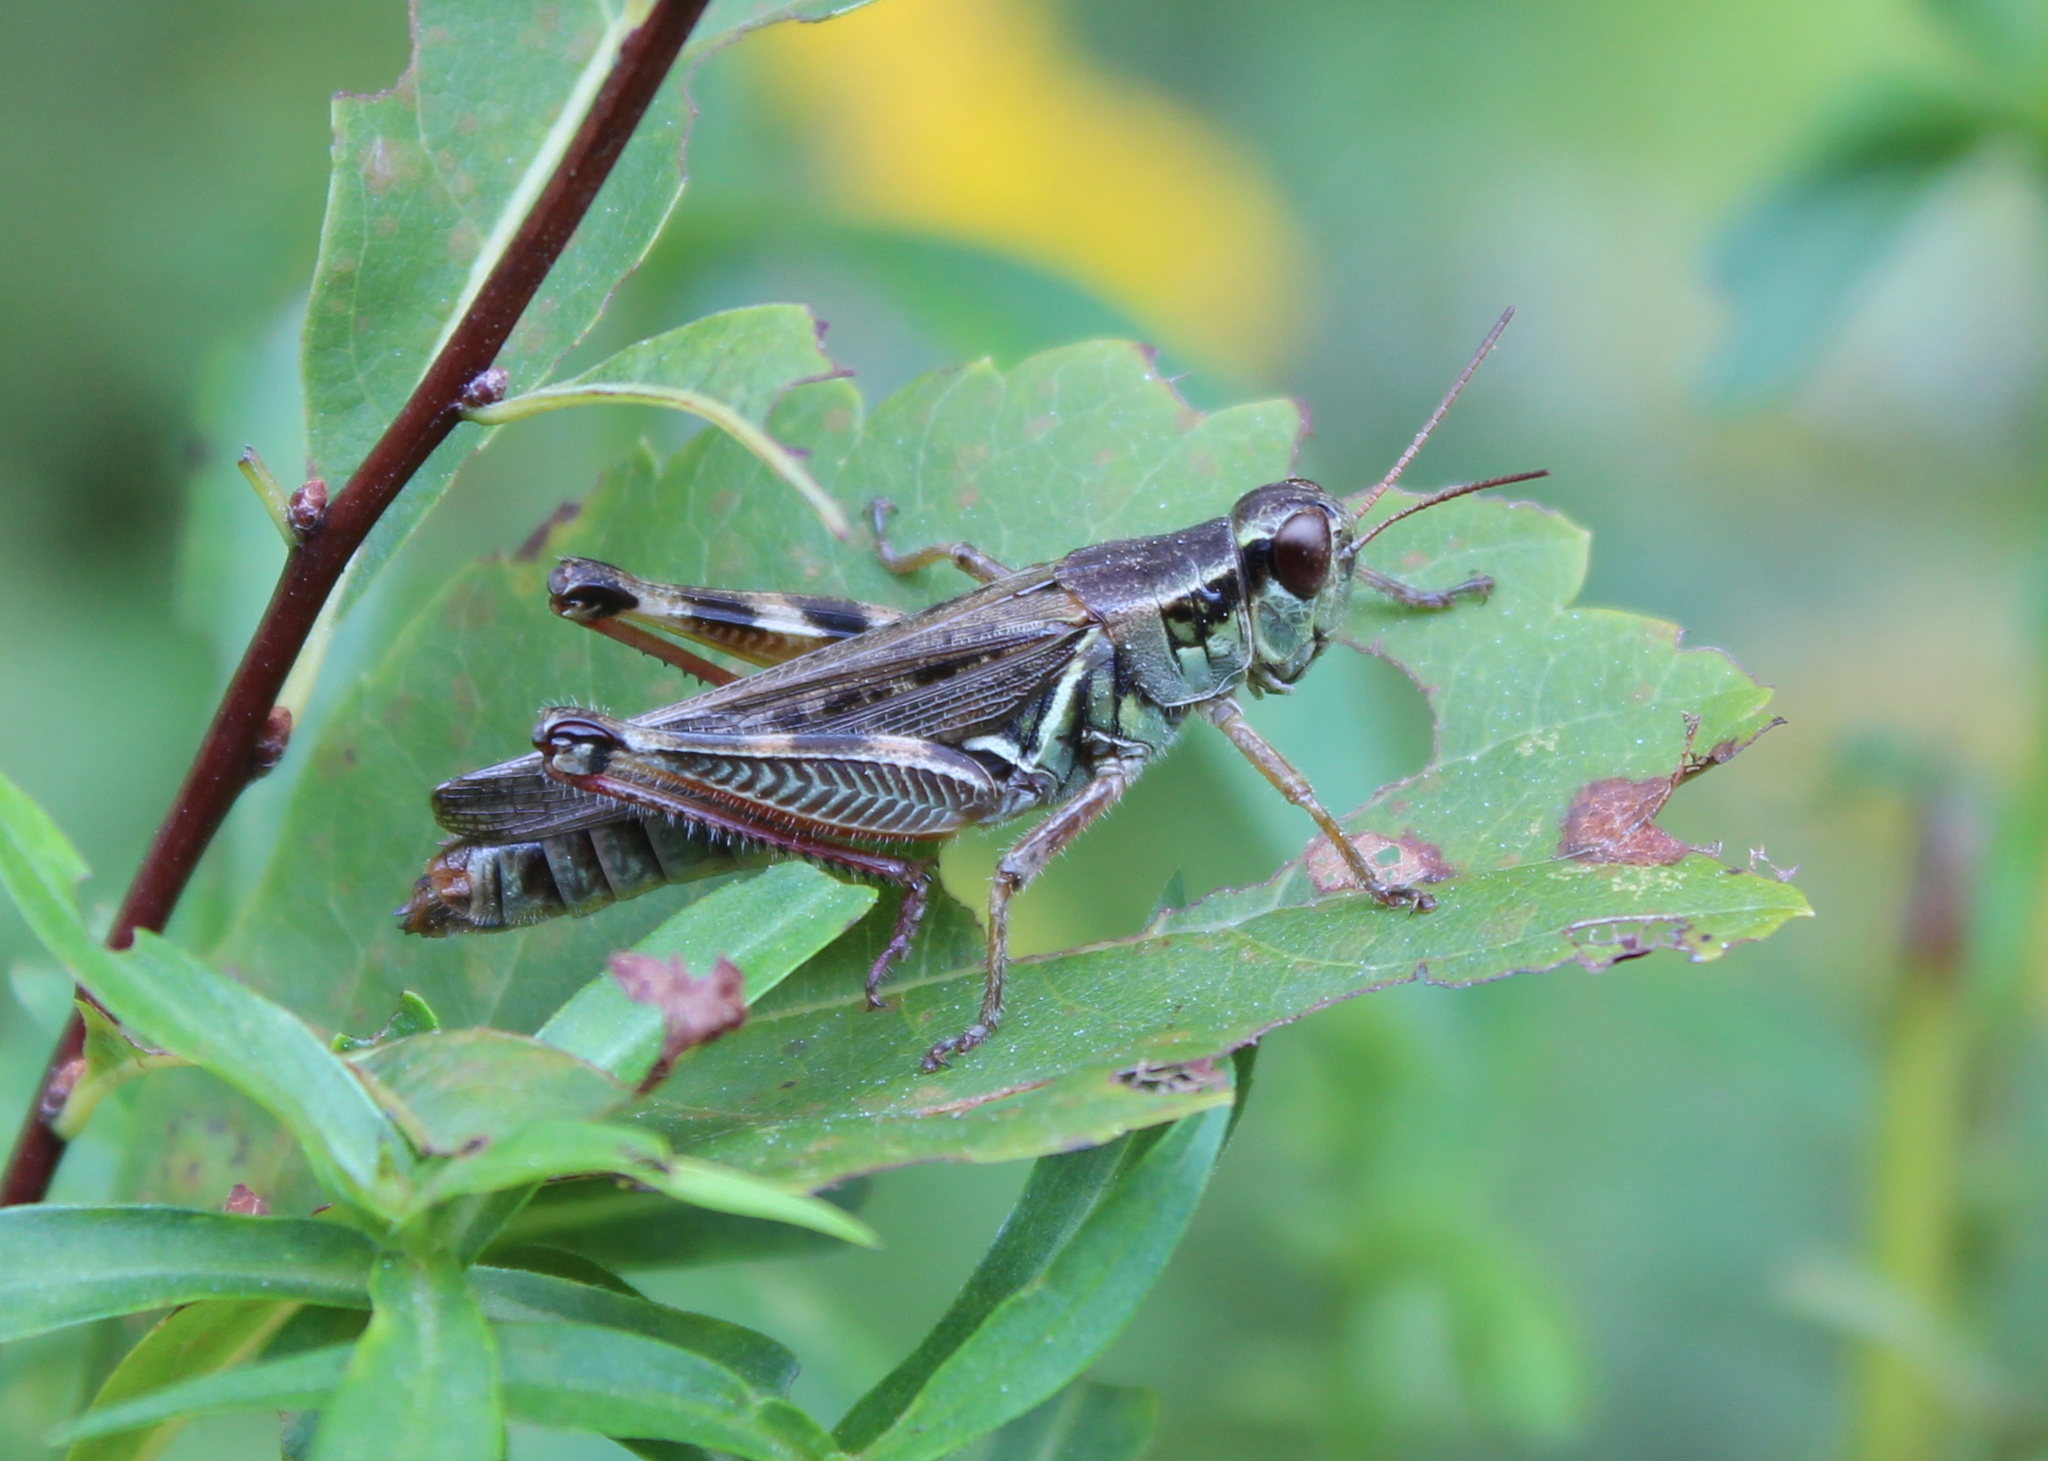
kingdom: Animalia
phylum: Arthropoda
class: Insecta
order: Orthoptera
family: Acrididae
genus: Melanoplus
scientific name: Melanoplus femurrubrum
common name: Red-legged grasshopper
